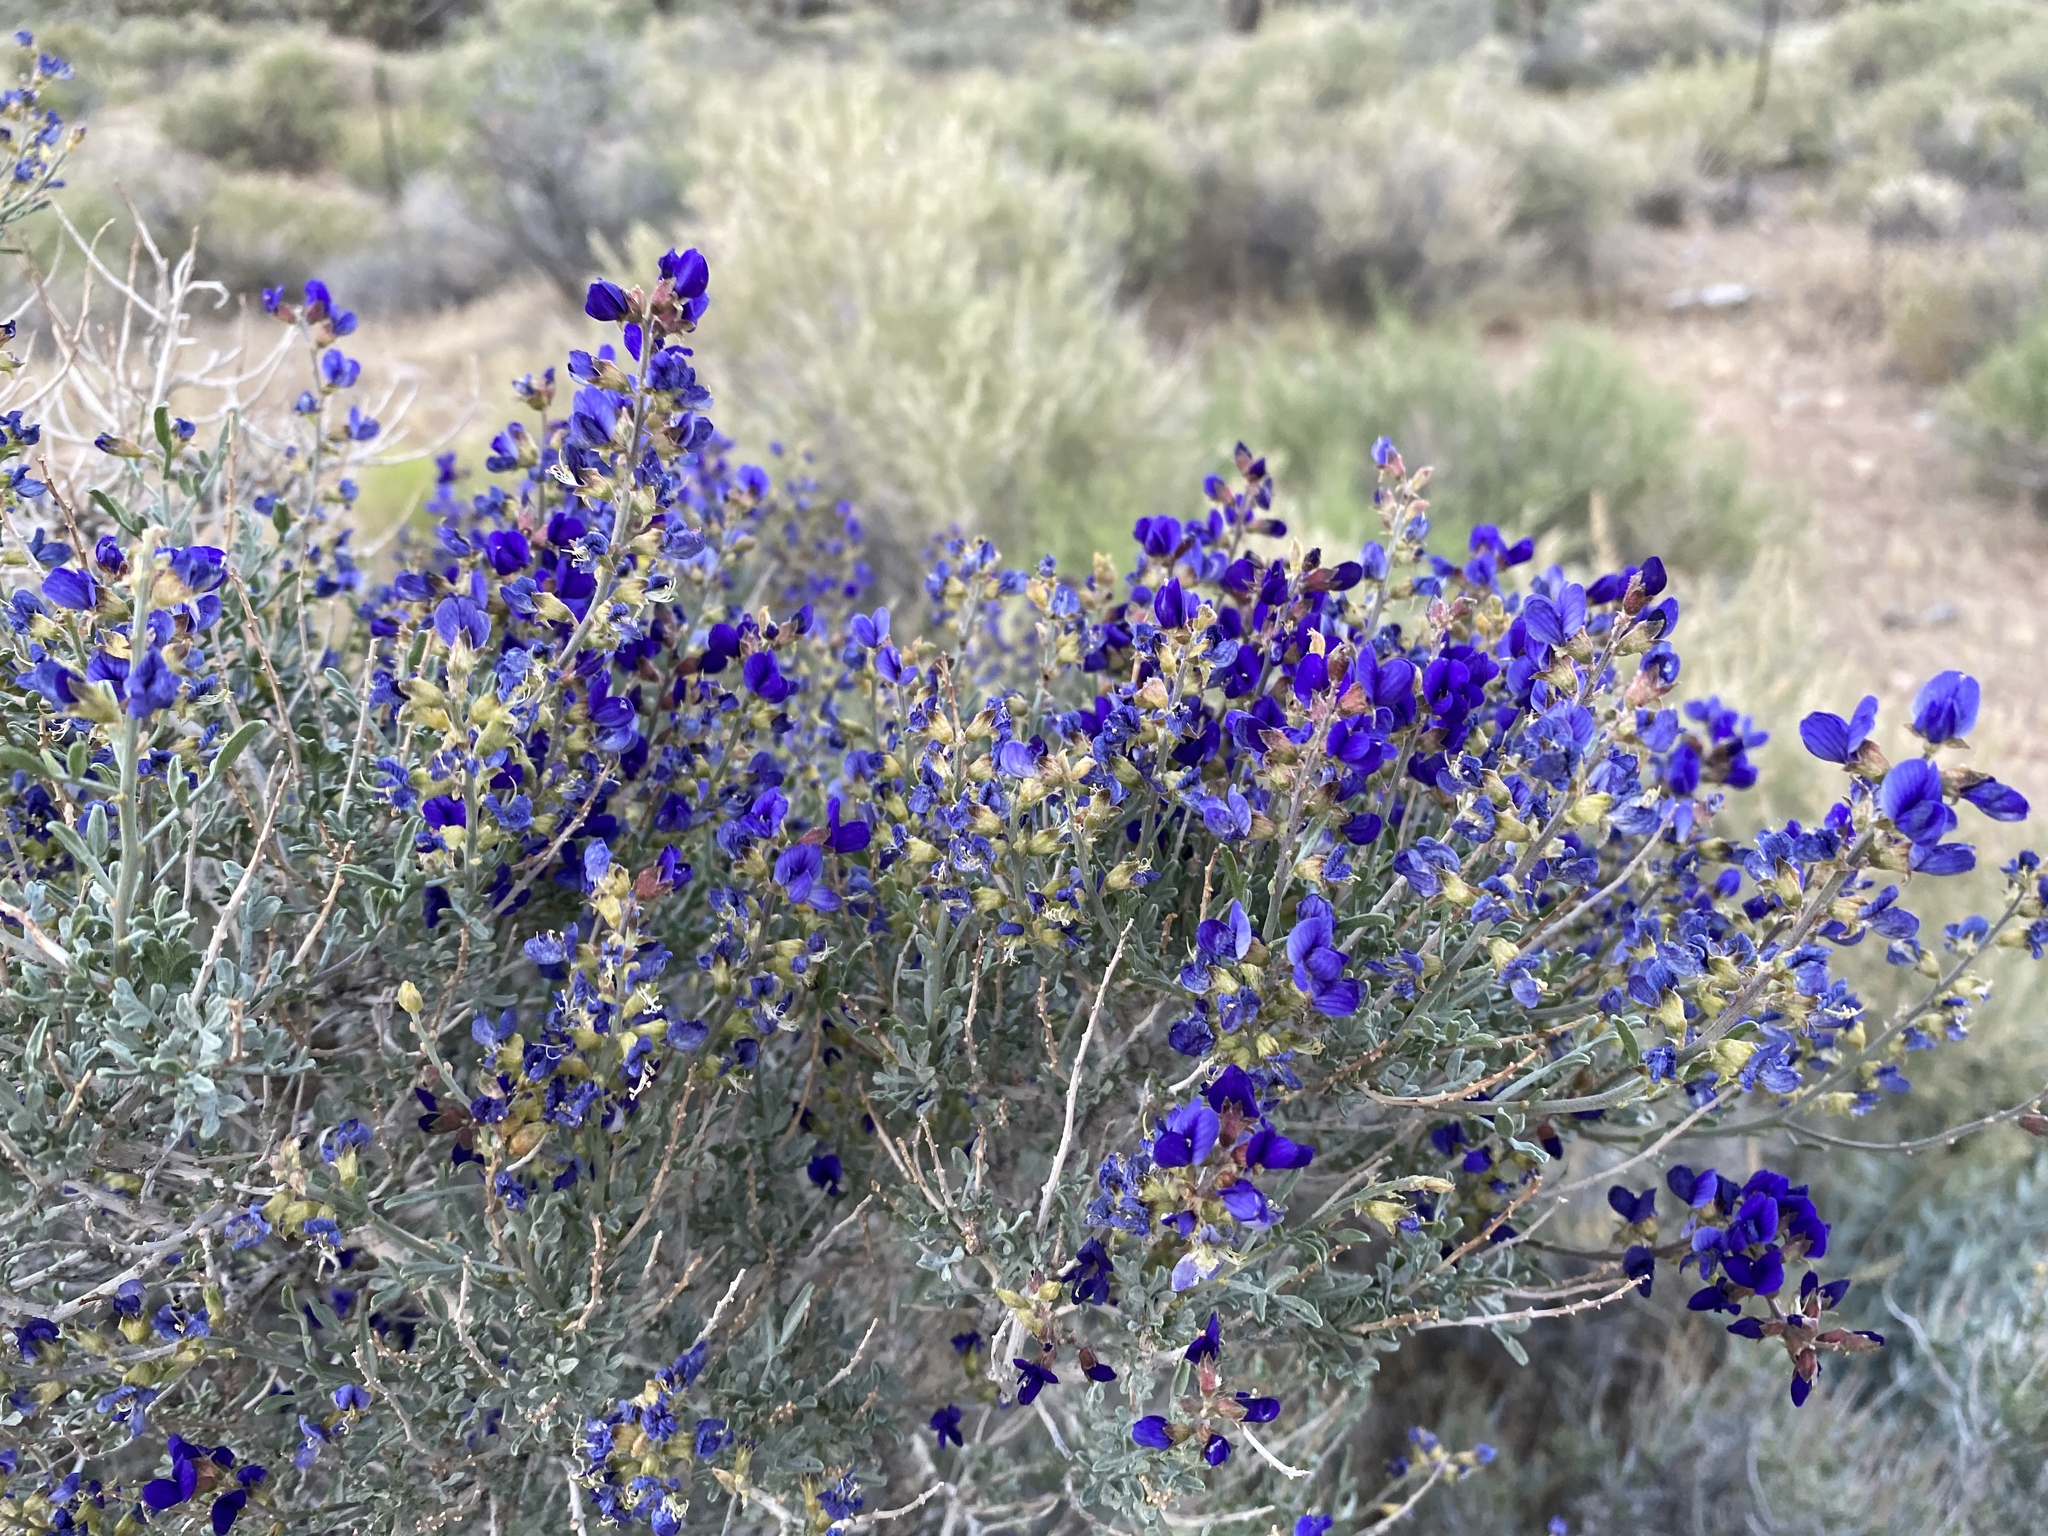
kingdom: Plantae
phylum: Tracheophyta
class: Magnoliopsida
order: Fabales
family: Fabaceae
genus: Psorothamnus
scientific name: Psorothamnus fremontii
